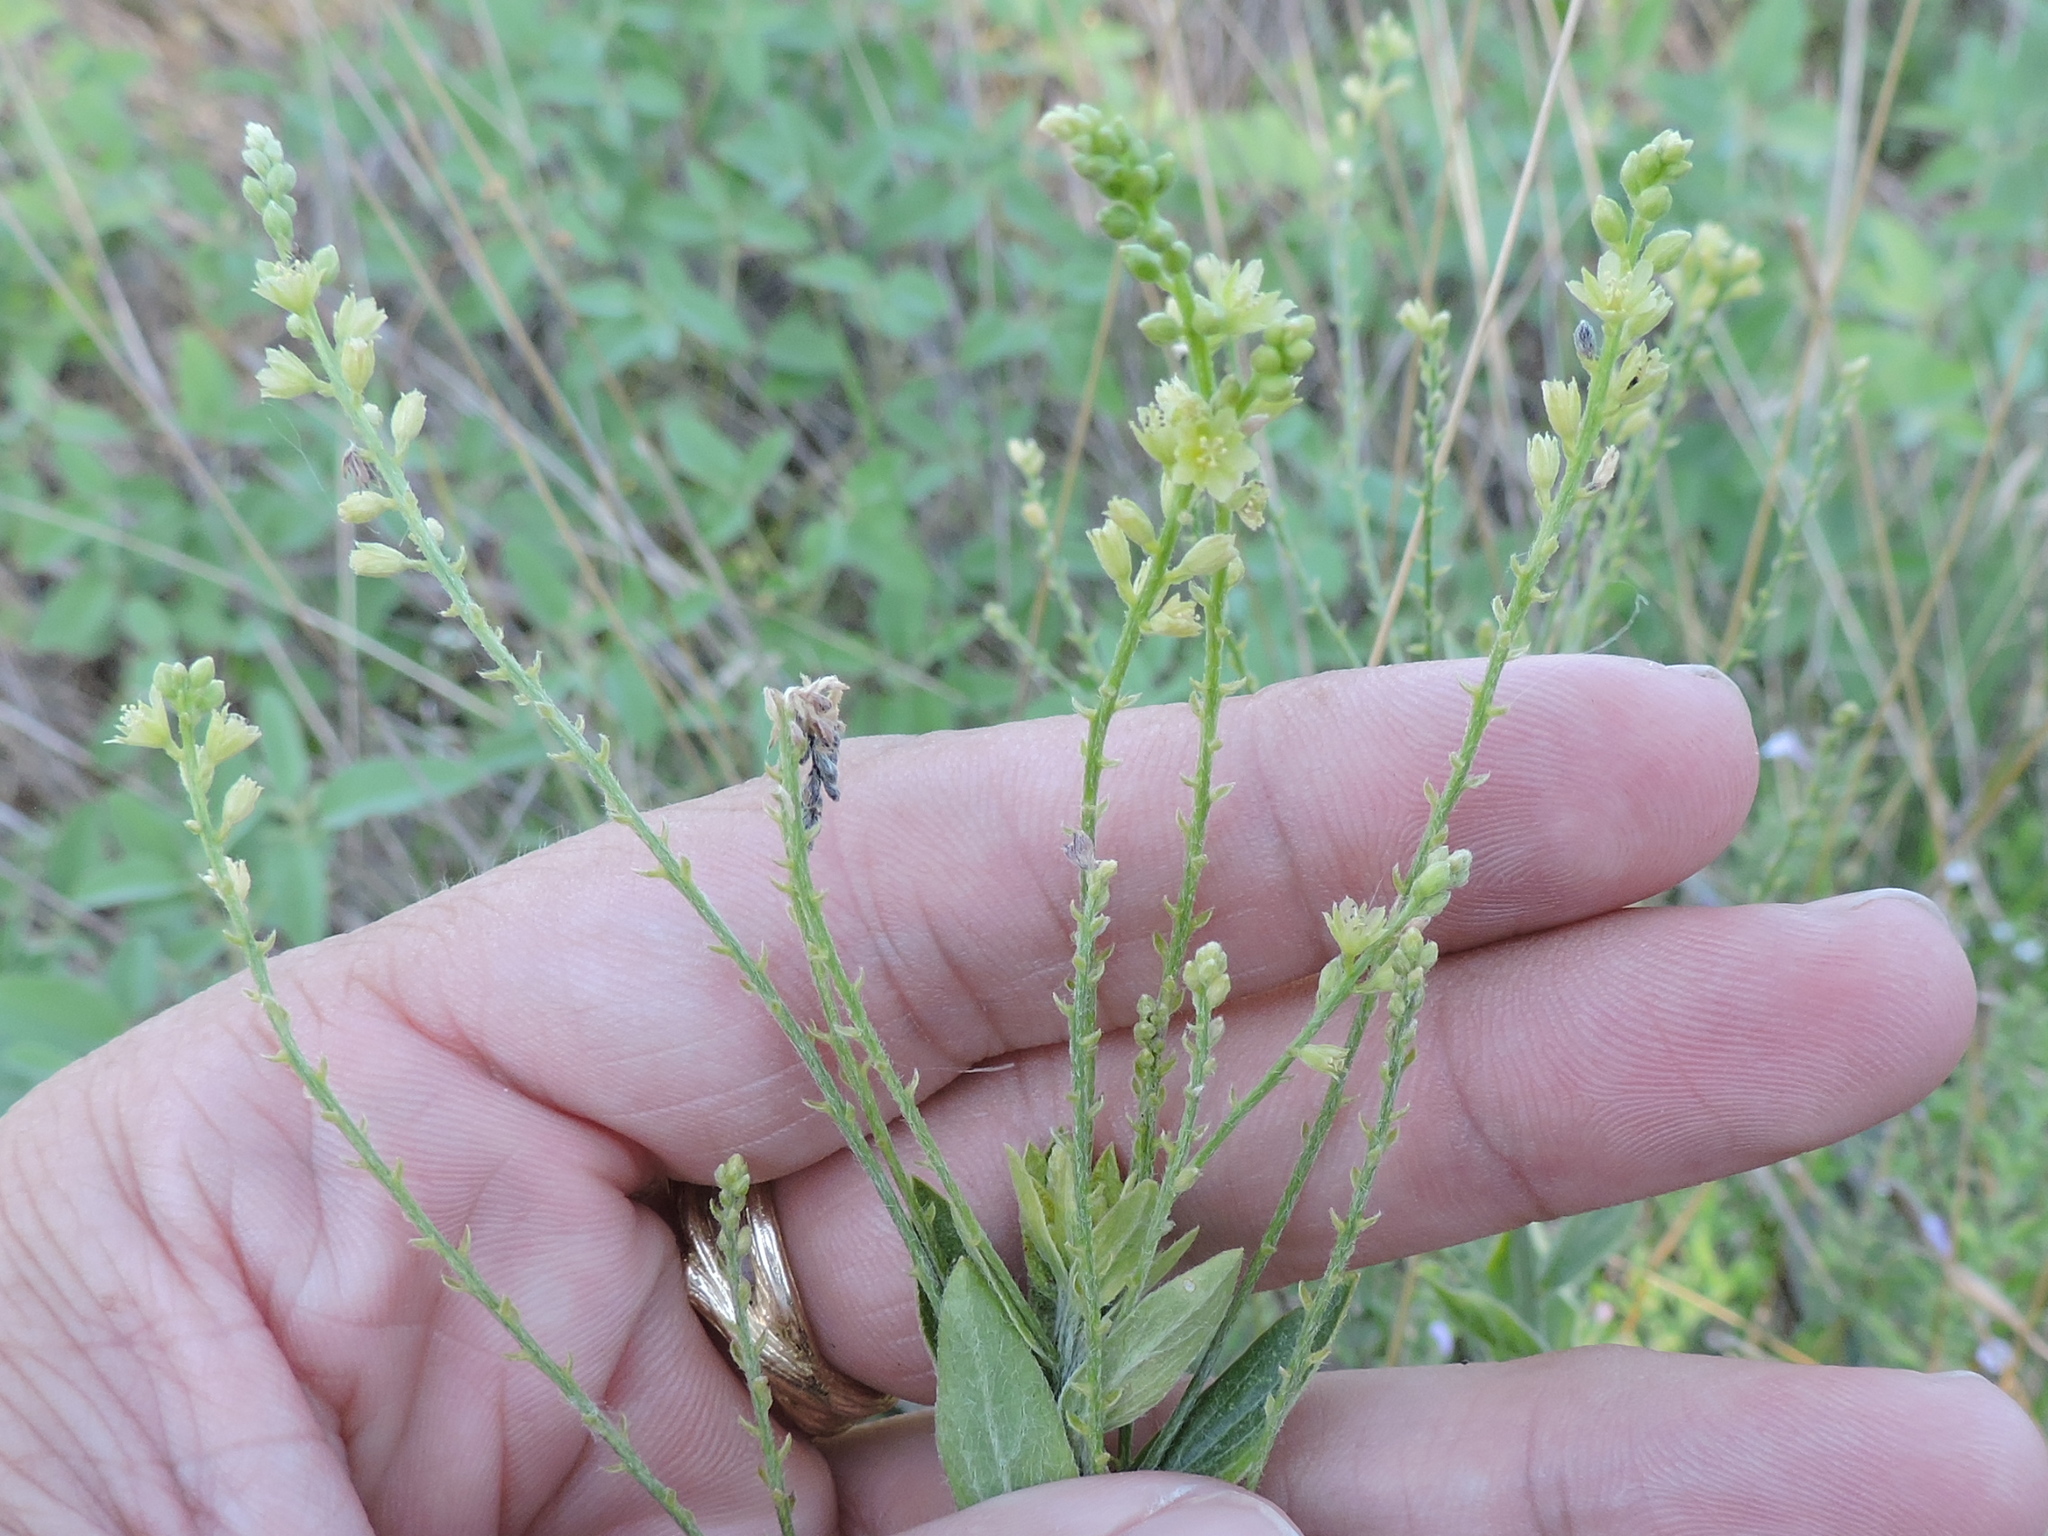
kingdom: Plantae
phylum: Tracheophyta
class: Magnoliopsida
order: Malpighiales
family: Euphorbiaceae
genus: Ditaxis
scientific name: Ditaxis mercurialina
